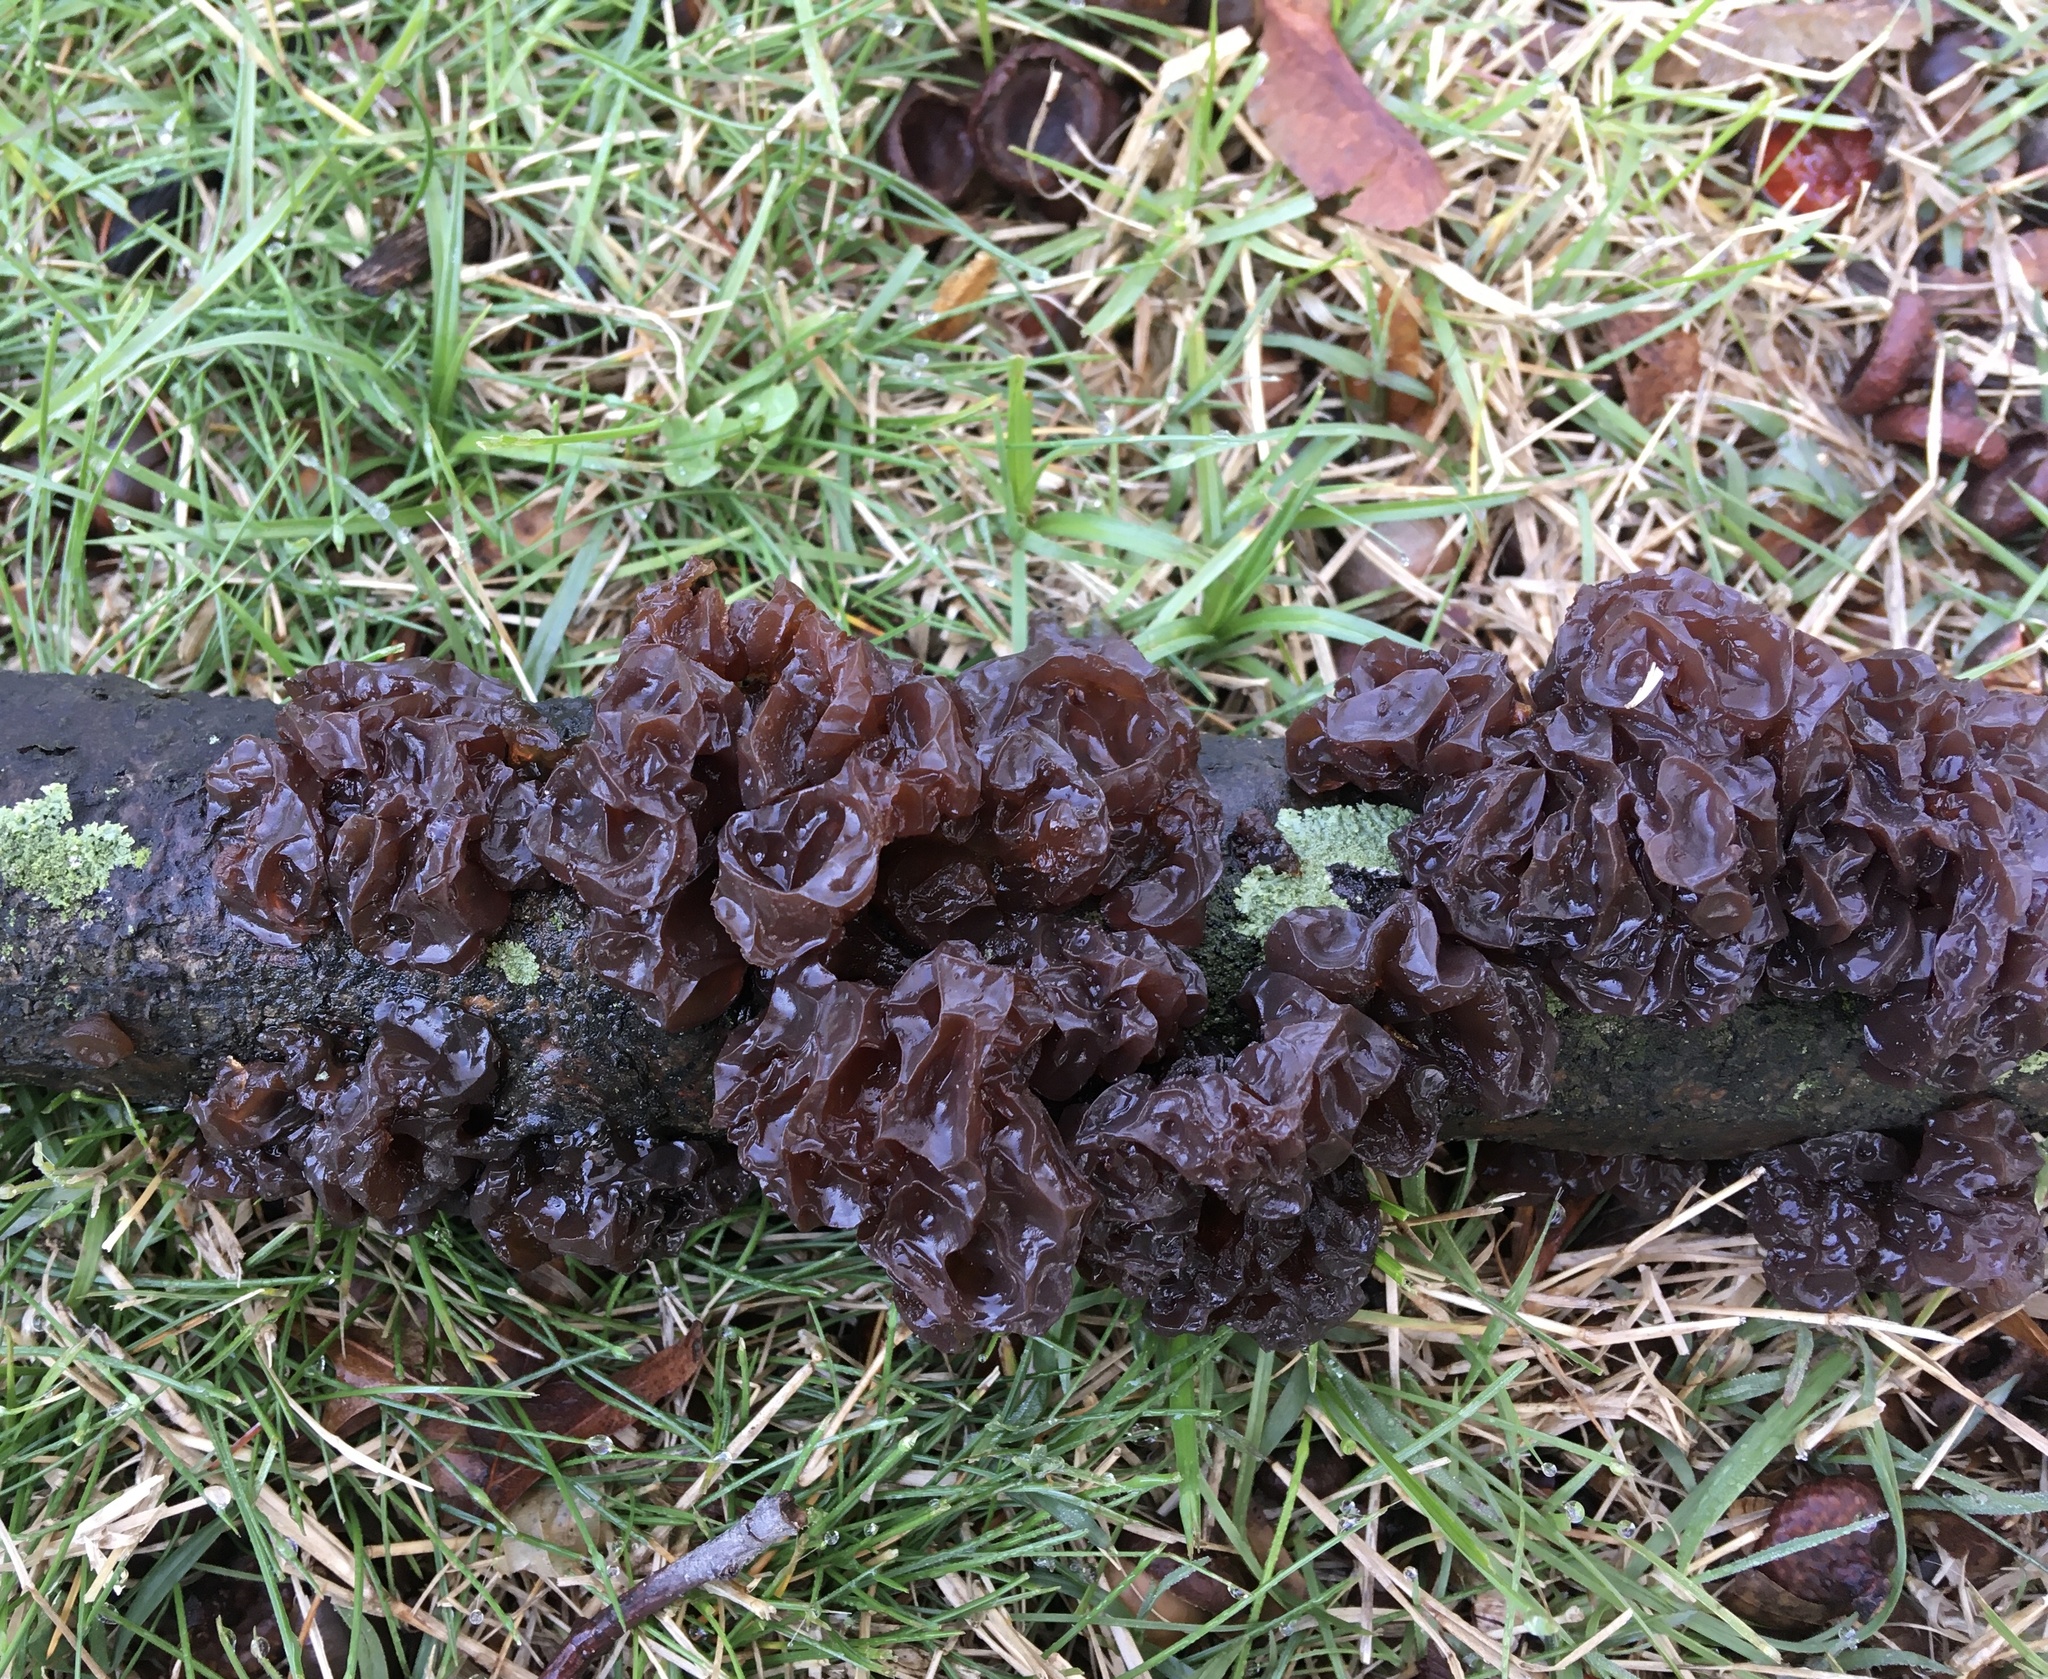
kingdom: Fungi
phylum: Basidiomycota
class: Agaricomycetes
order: Auriculariales
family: Auriculariaceae
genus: Exidia
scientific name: Exidia
